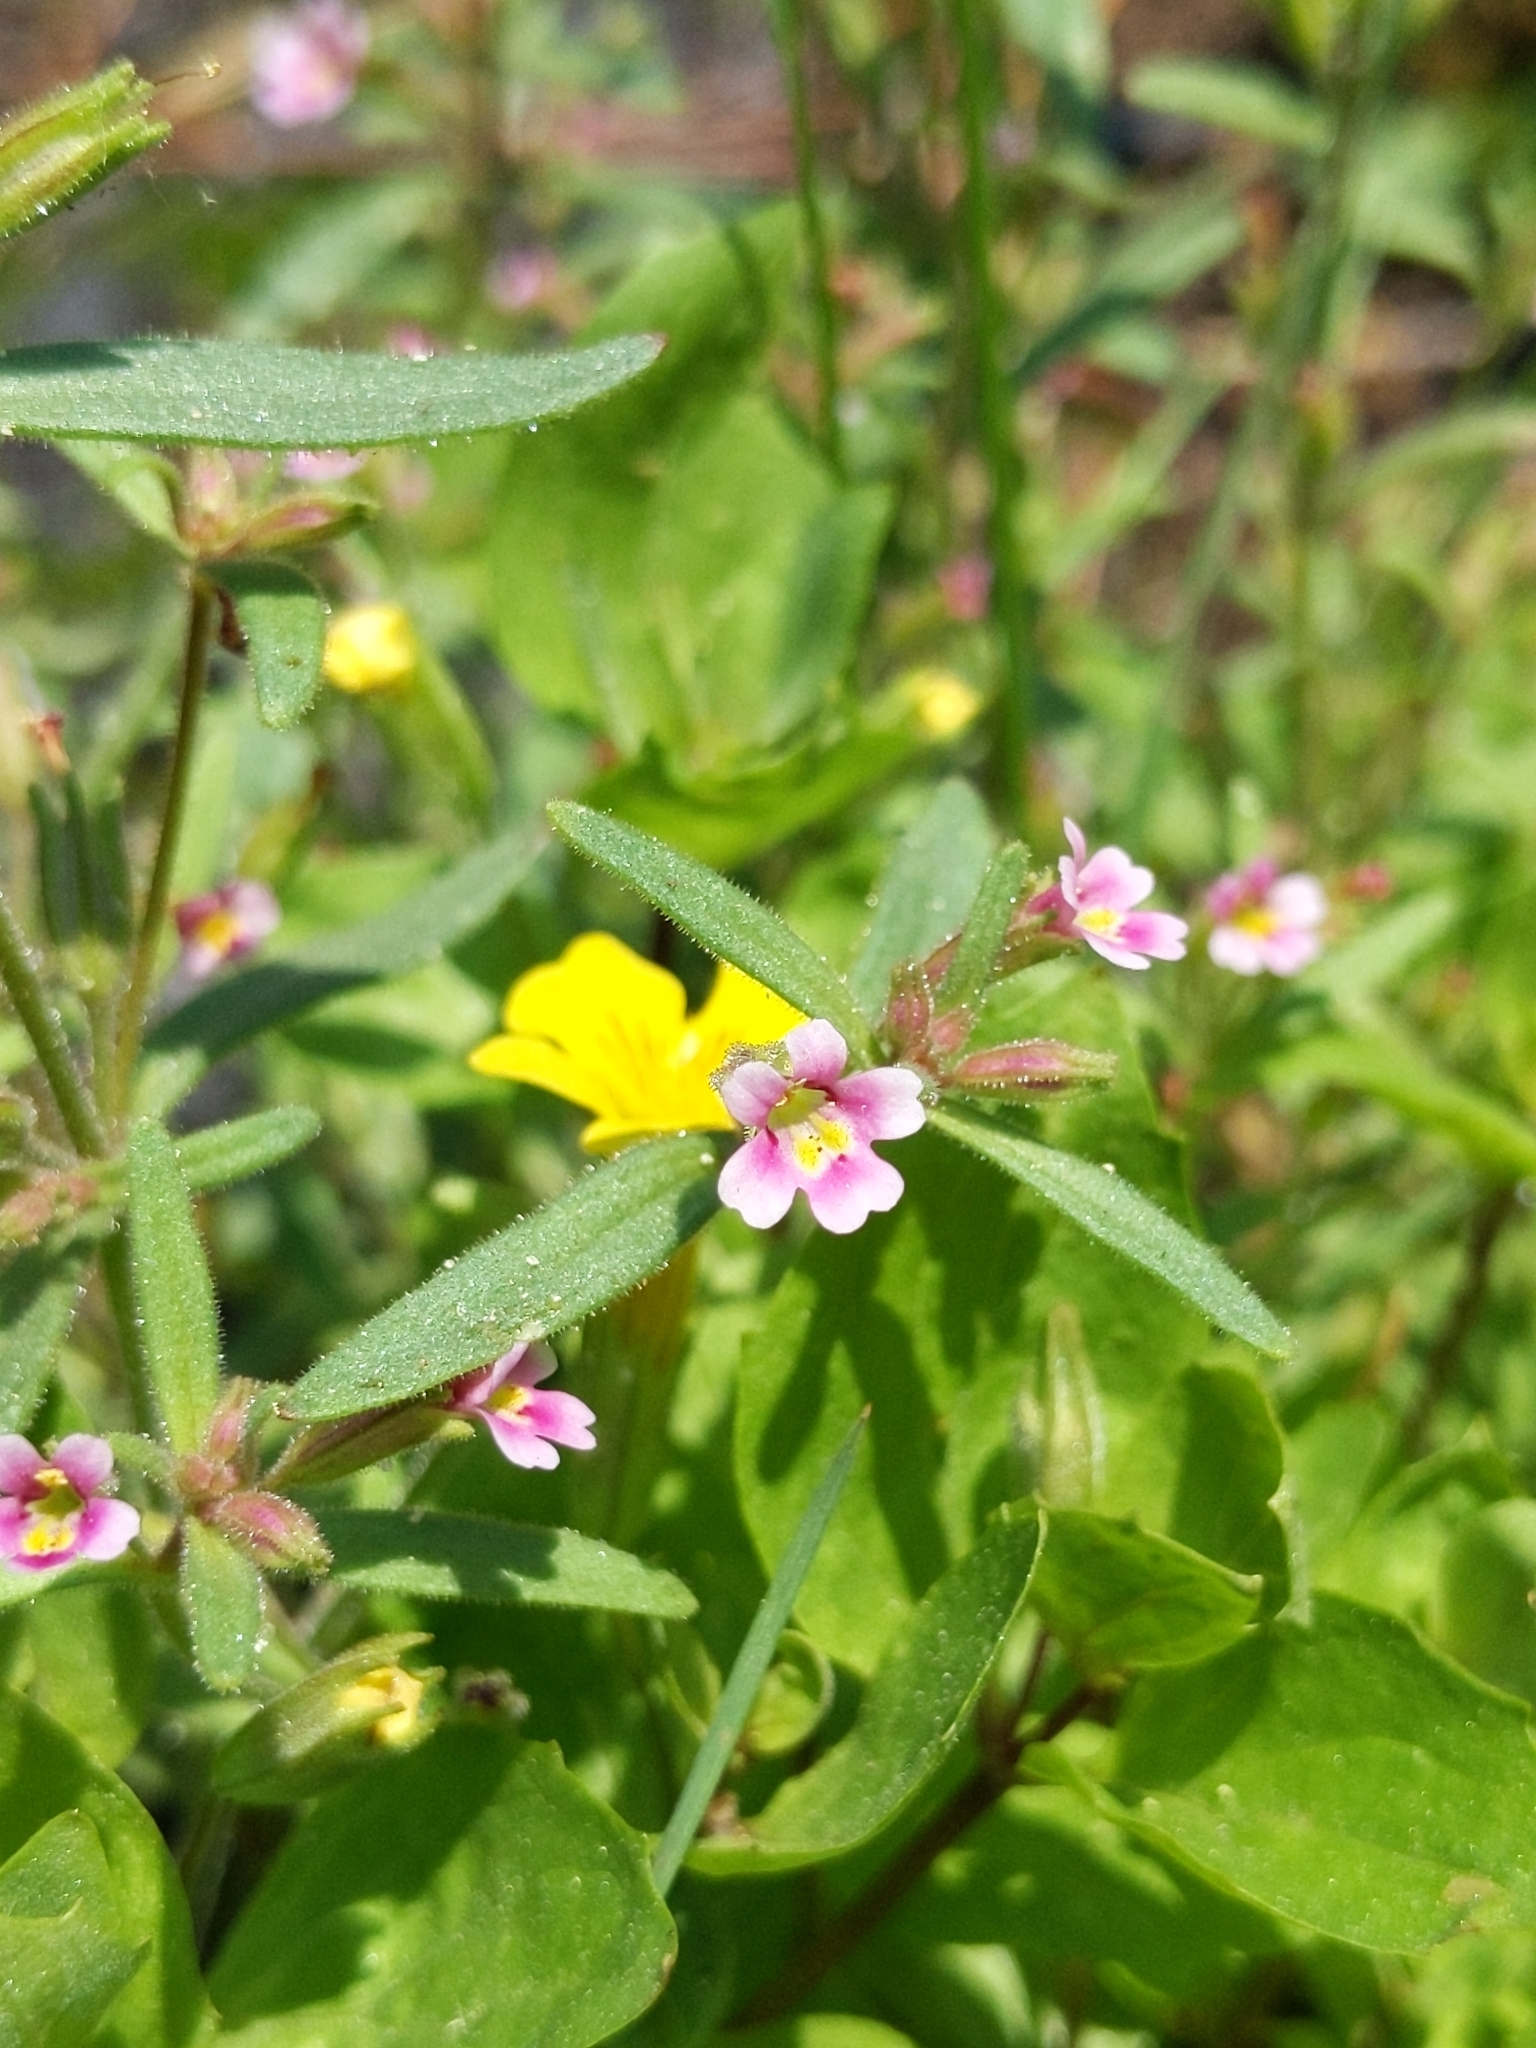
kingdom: Plantae
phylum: Tracheophyta
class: Magnoliopsida
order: Lamiales
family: Phrymaceae
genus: Erythranthe
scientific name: Erythranthe breweri
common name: Brewer's monkeyflower
